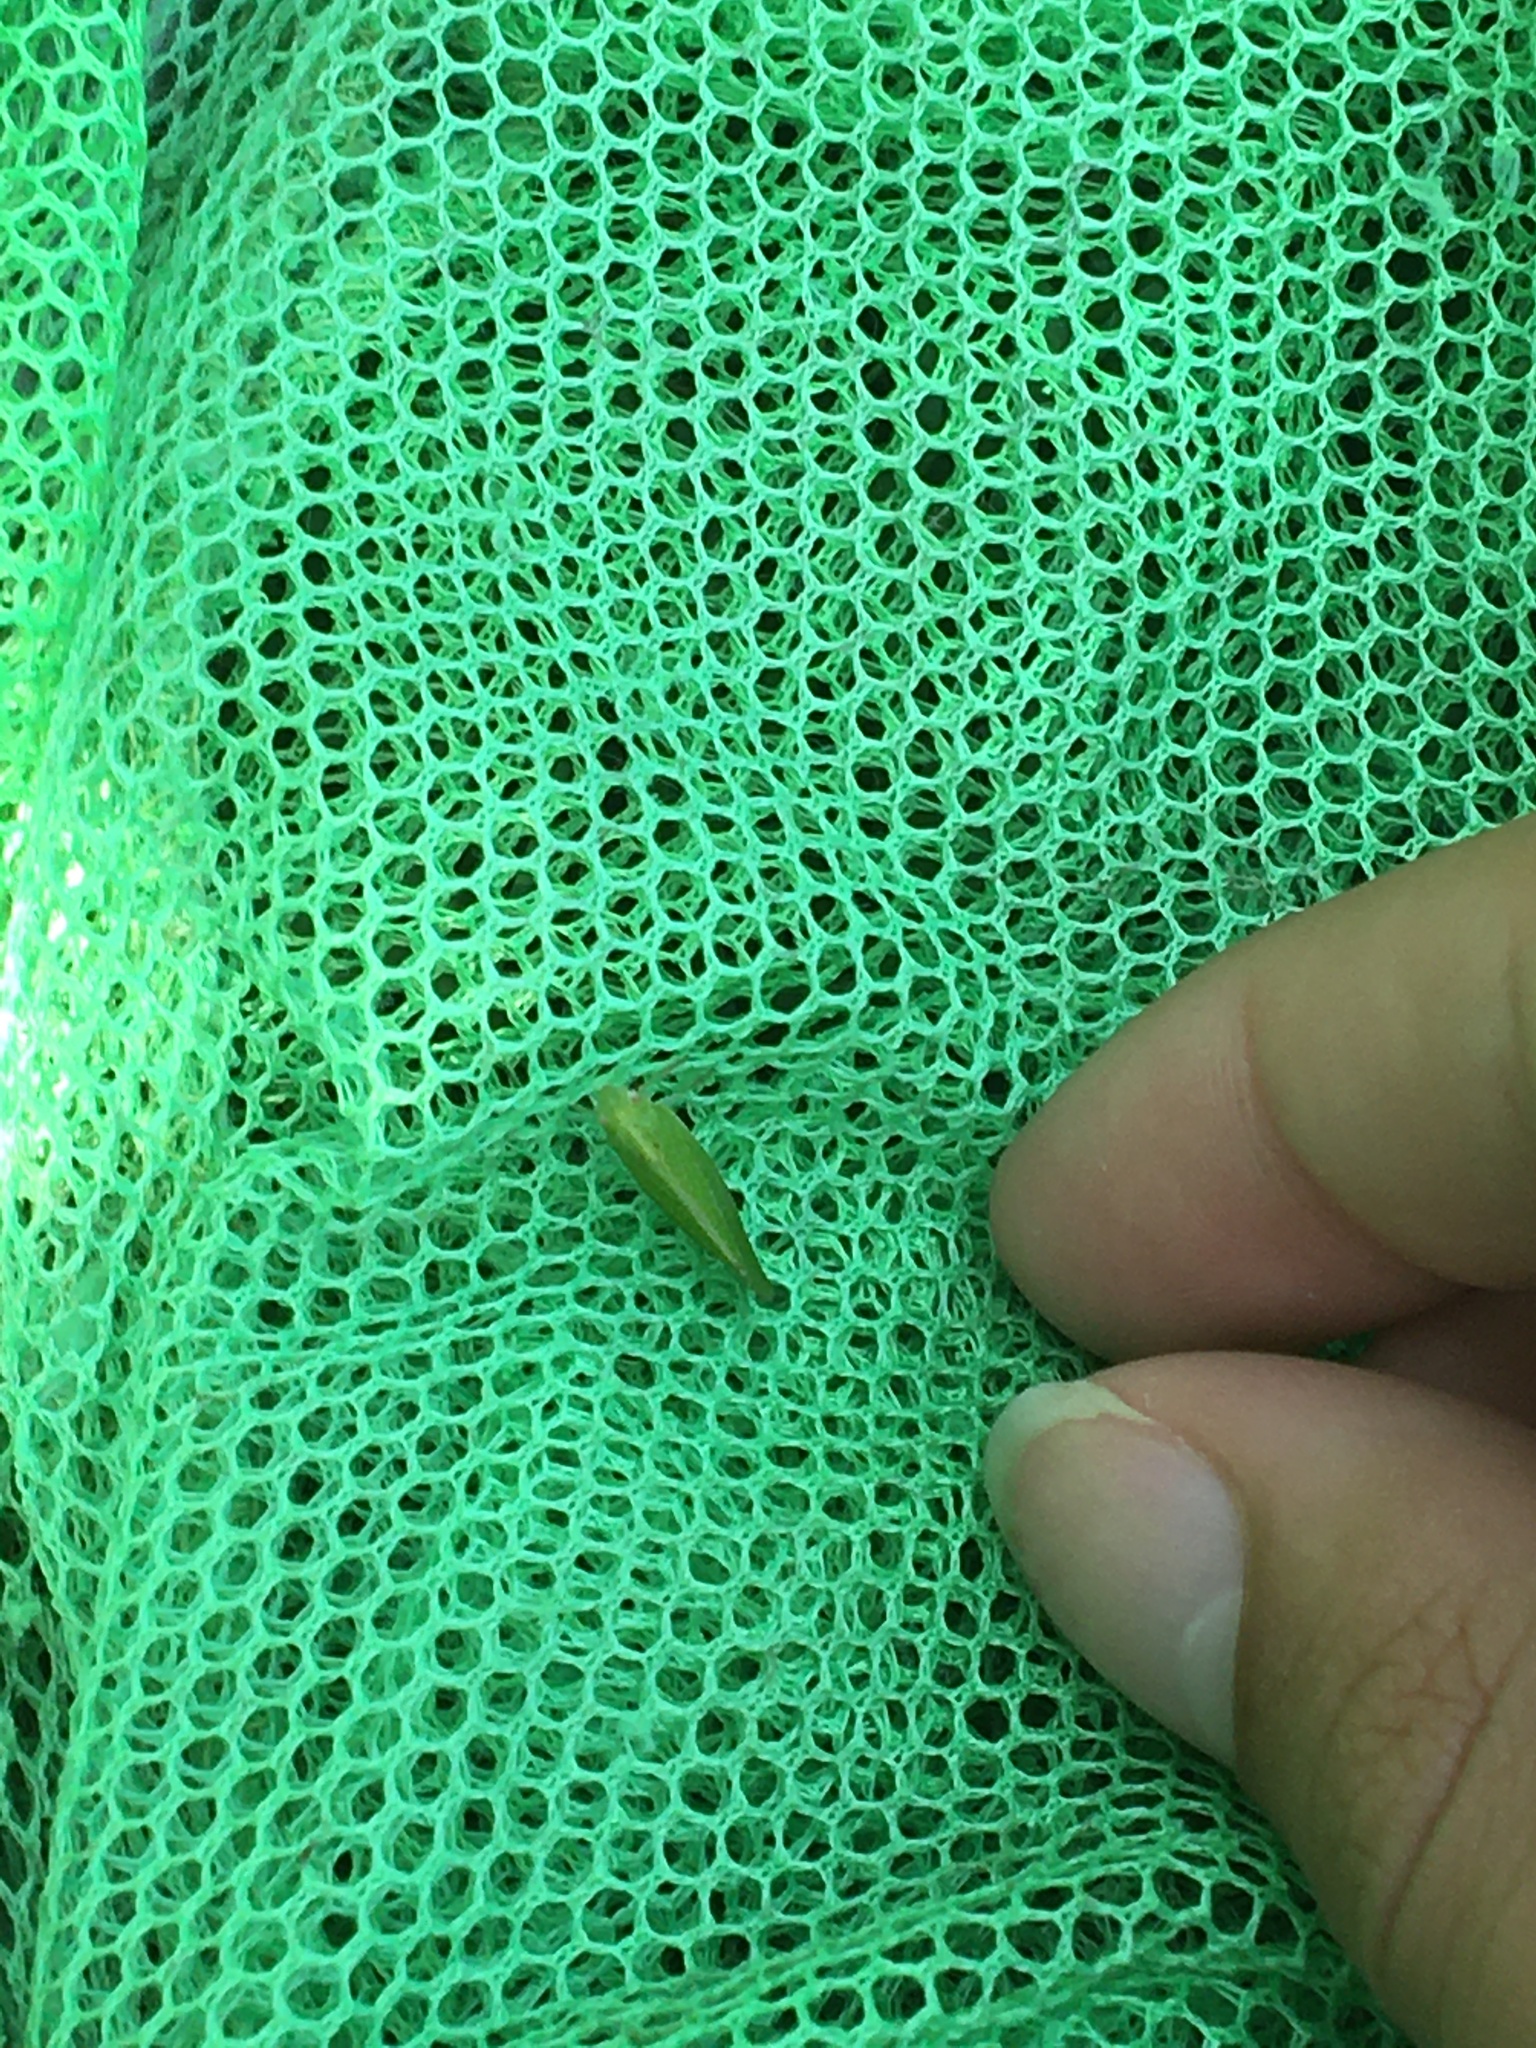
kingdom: Animalia
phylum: Arthropoda
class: Insecta
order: Hemiptera
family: Acanaloniidae
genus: Acanalonia
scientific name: Acanalonia conica
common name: Green cone-headed planthopper
